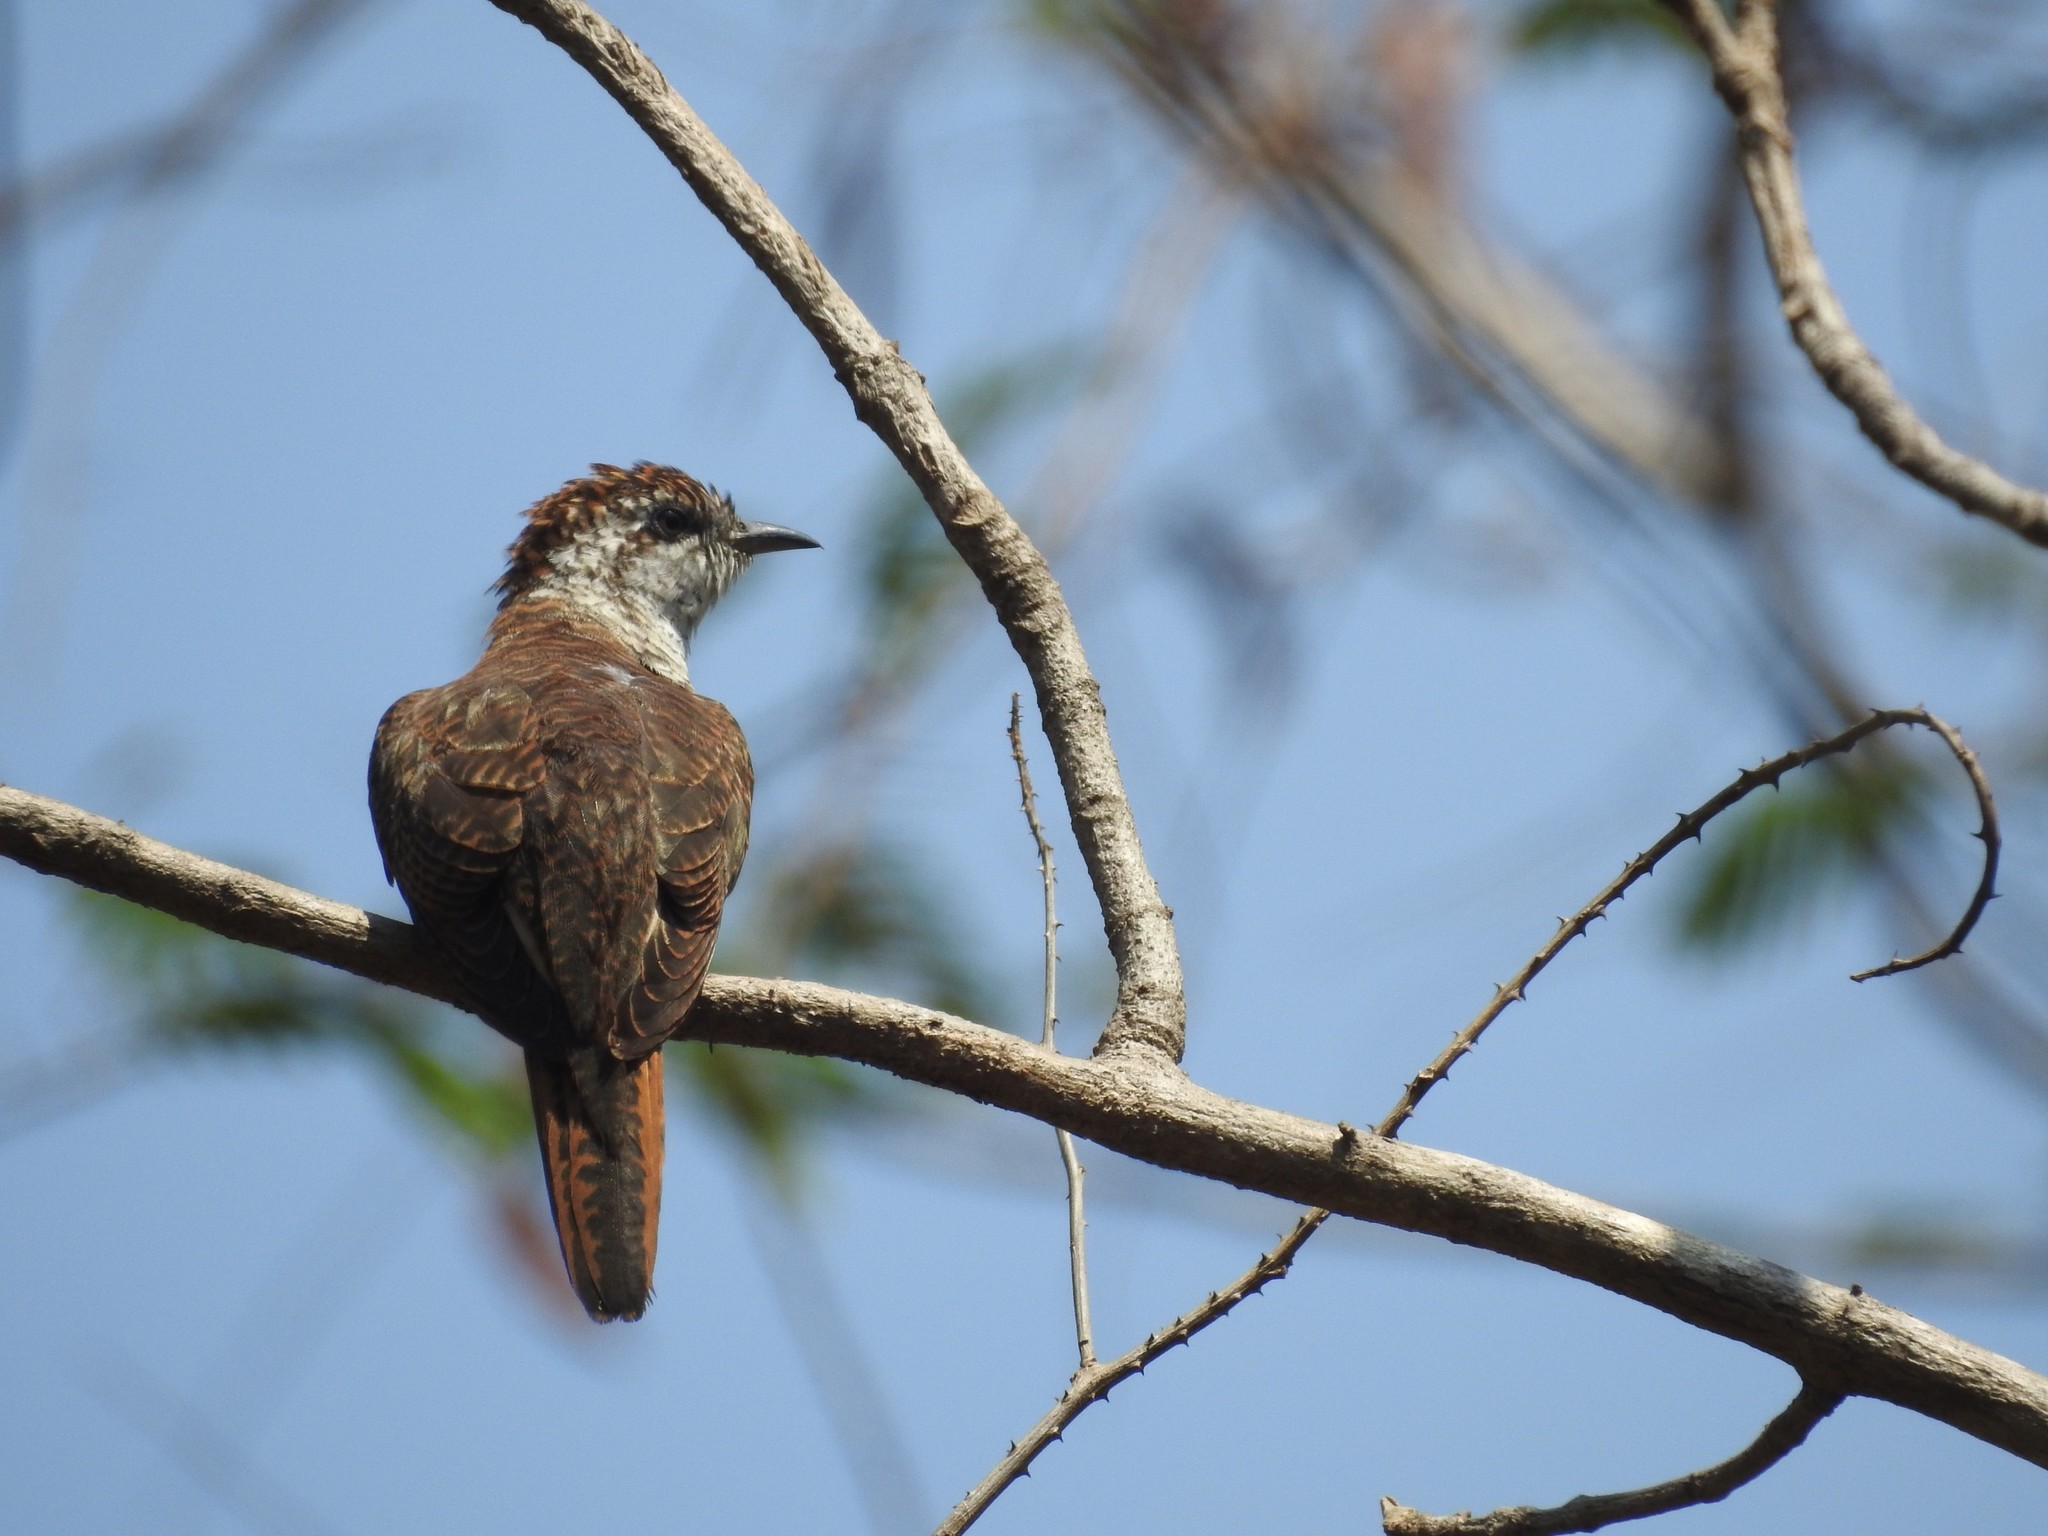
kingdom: Animalia
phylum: Chordata
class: Aves
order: Cuculiformes
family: Cuculidae
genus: Cacomantis
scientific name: Cacomantis sonneratii
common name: Banded bay cuckoo
